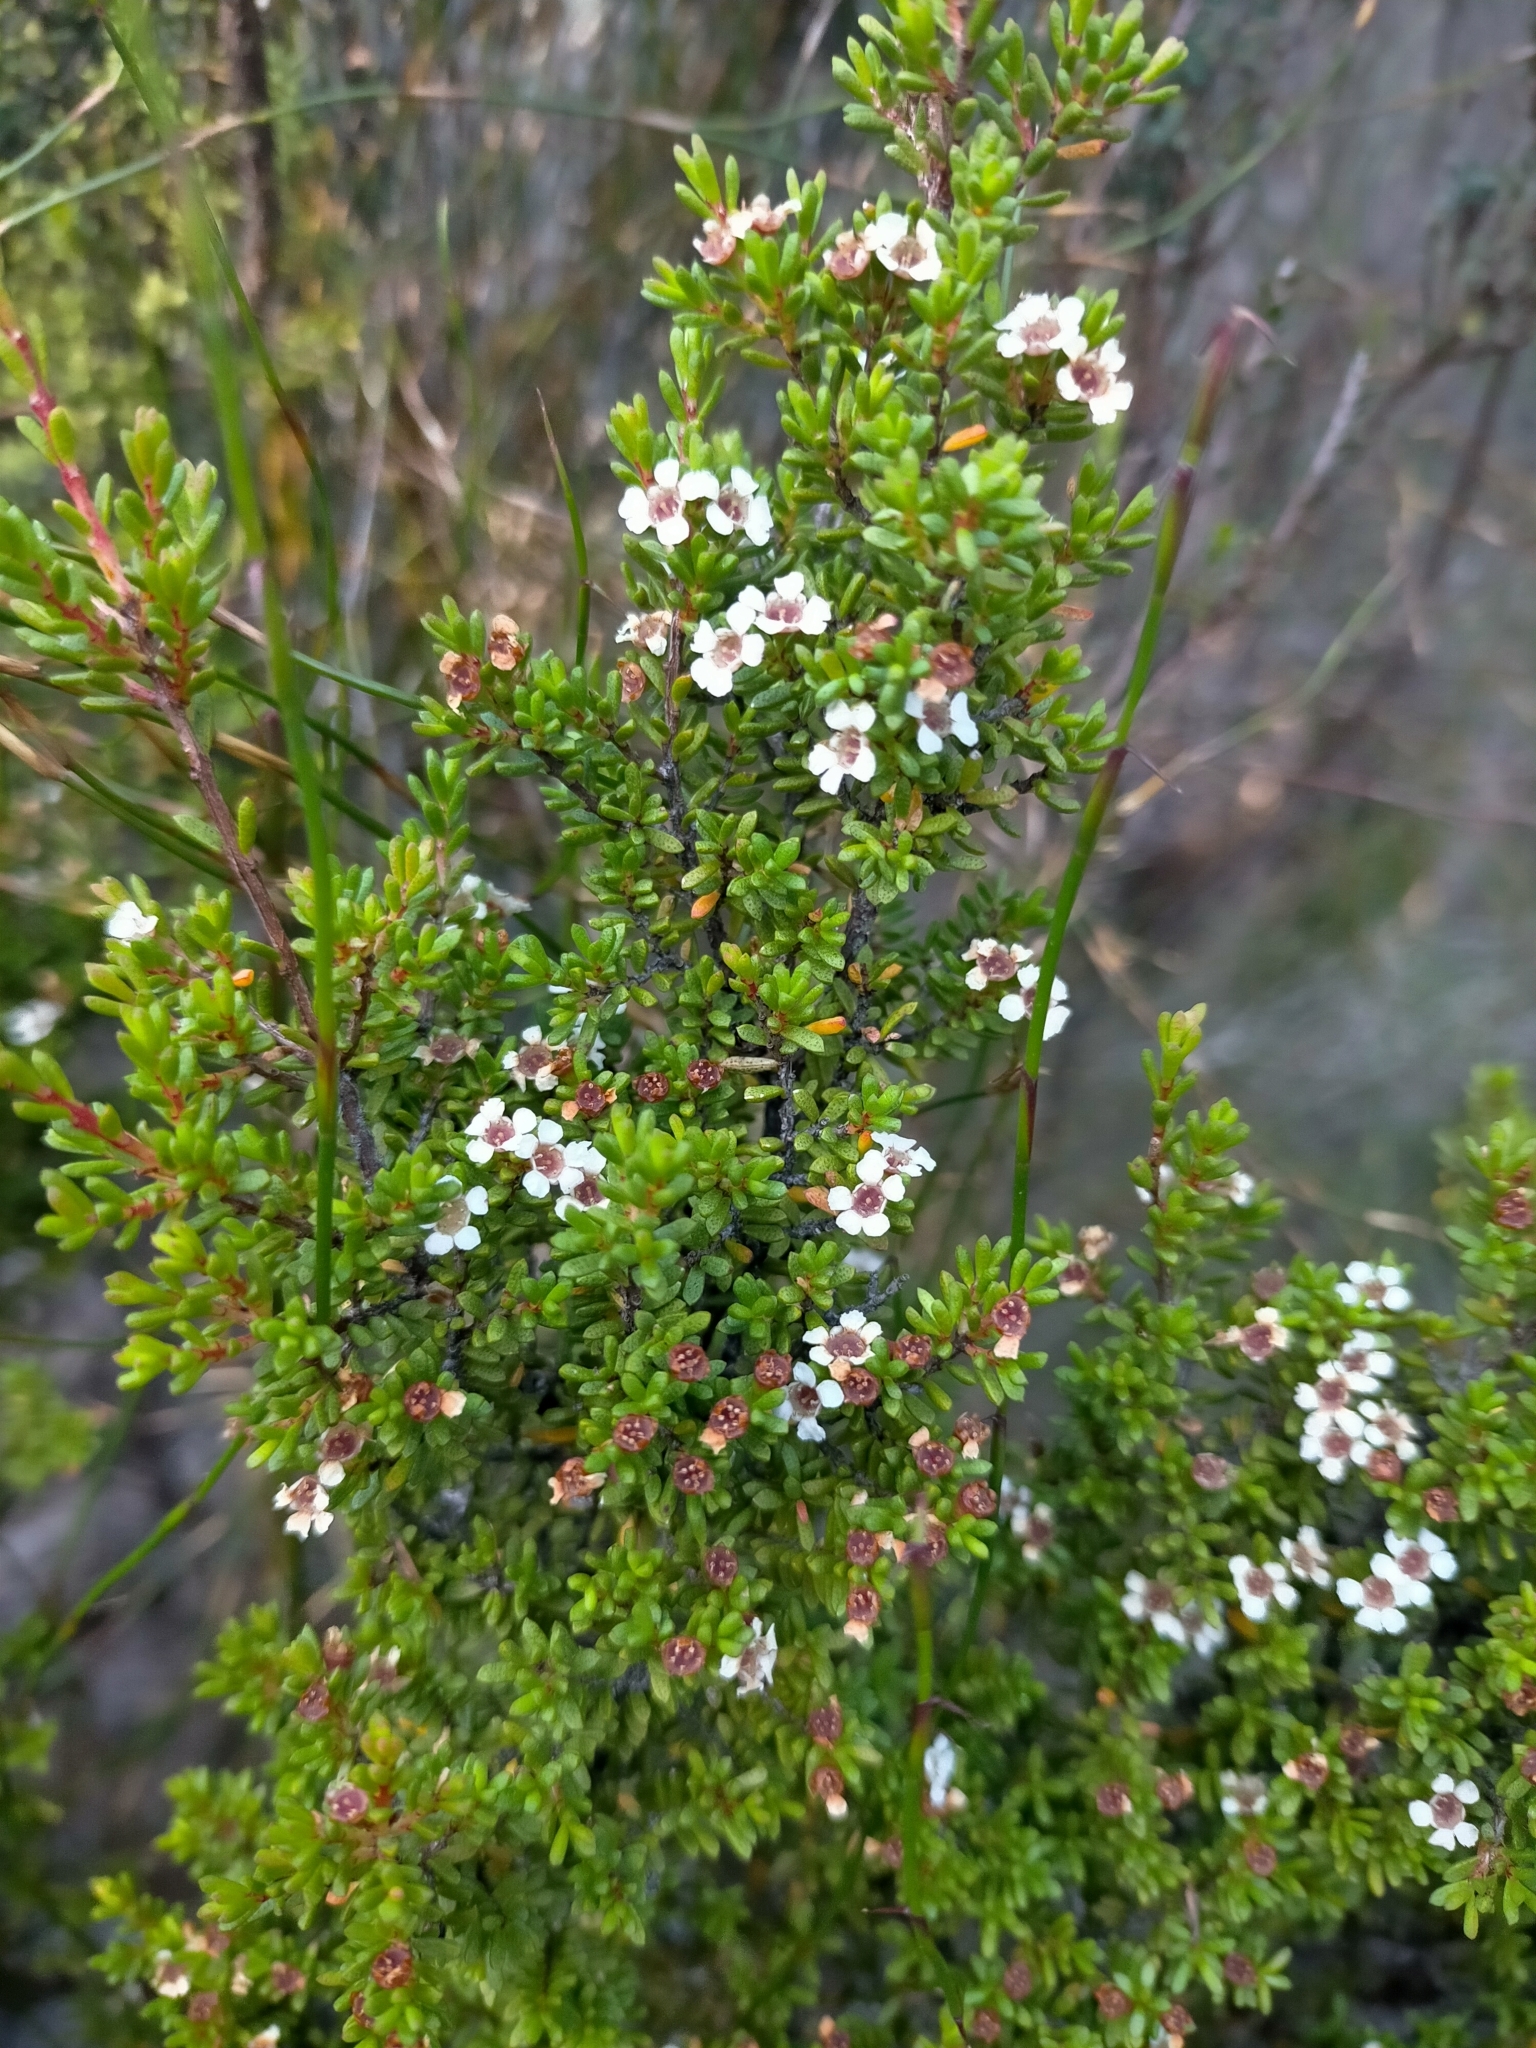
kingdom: Plantae
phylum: Tracheophyta
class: Magnoliopsida
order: Myrtales
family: Myrtaceae
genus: Baeckea
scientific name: Baeckea gunniana
